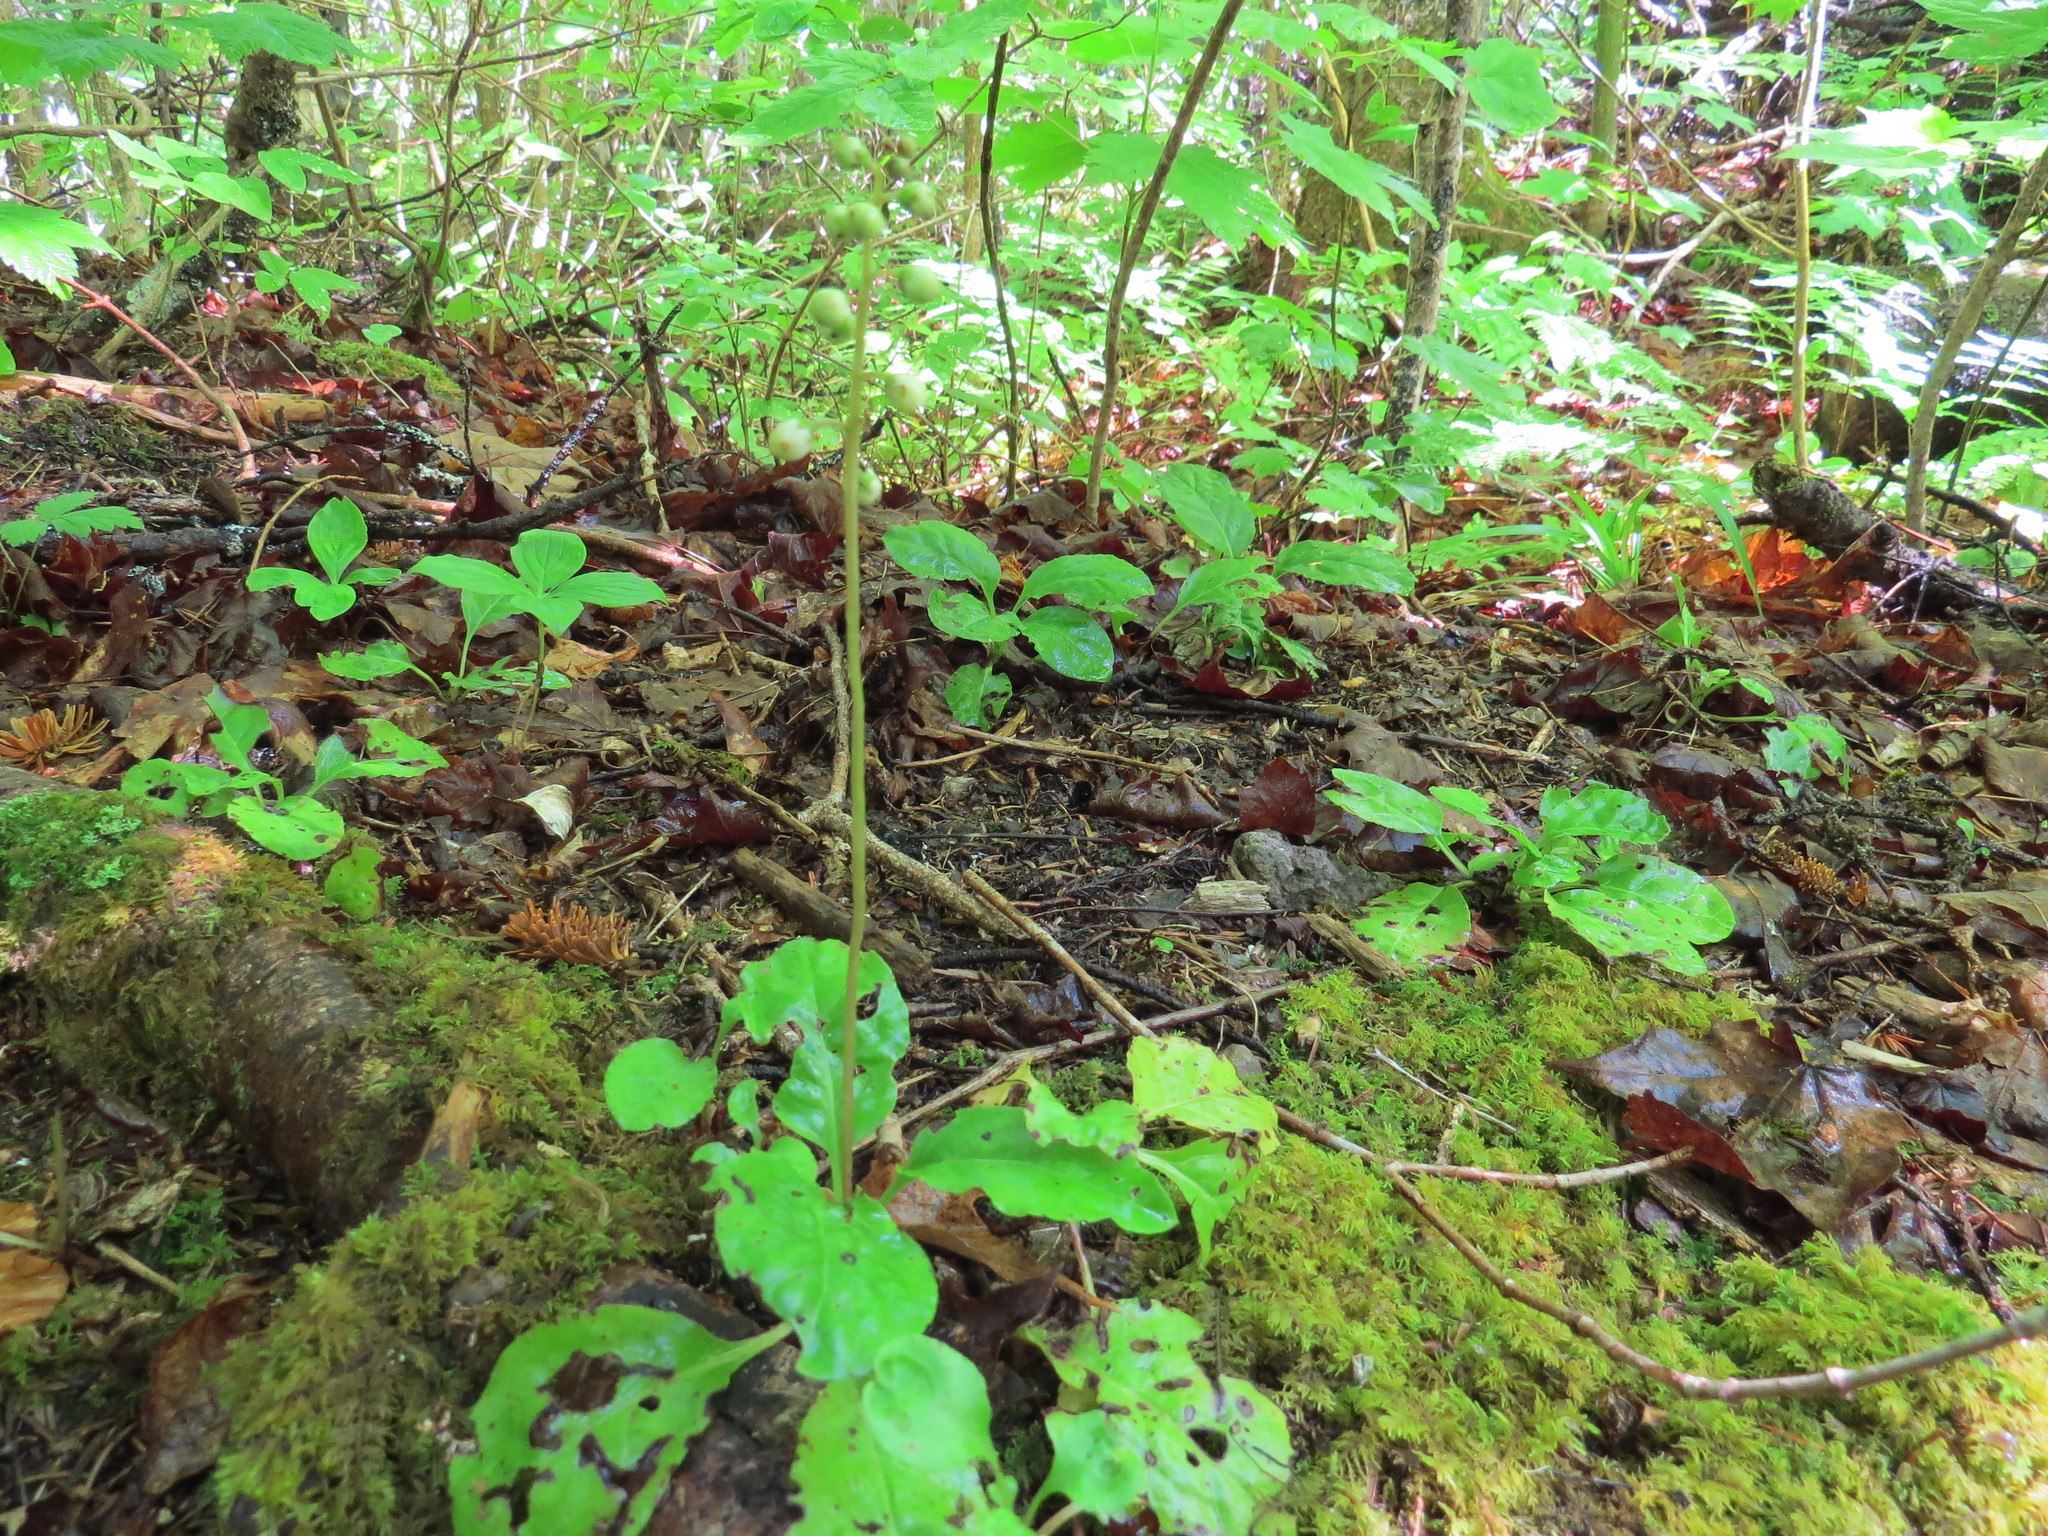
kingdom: Plantae
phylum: Tracheophyta
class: Magnoliopsida
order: Ericales
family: Ericaceae
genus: Pyrola
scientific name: Pyrola elliptica
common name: Shinleaf
